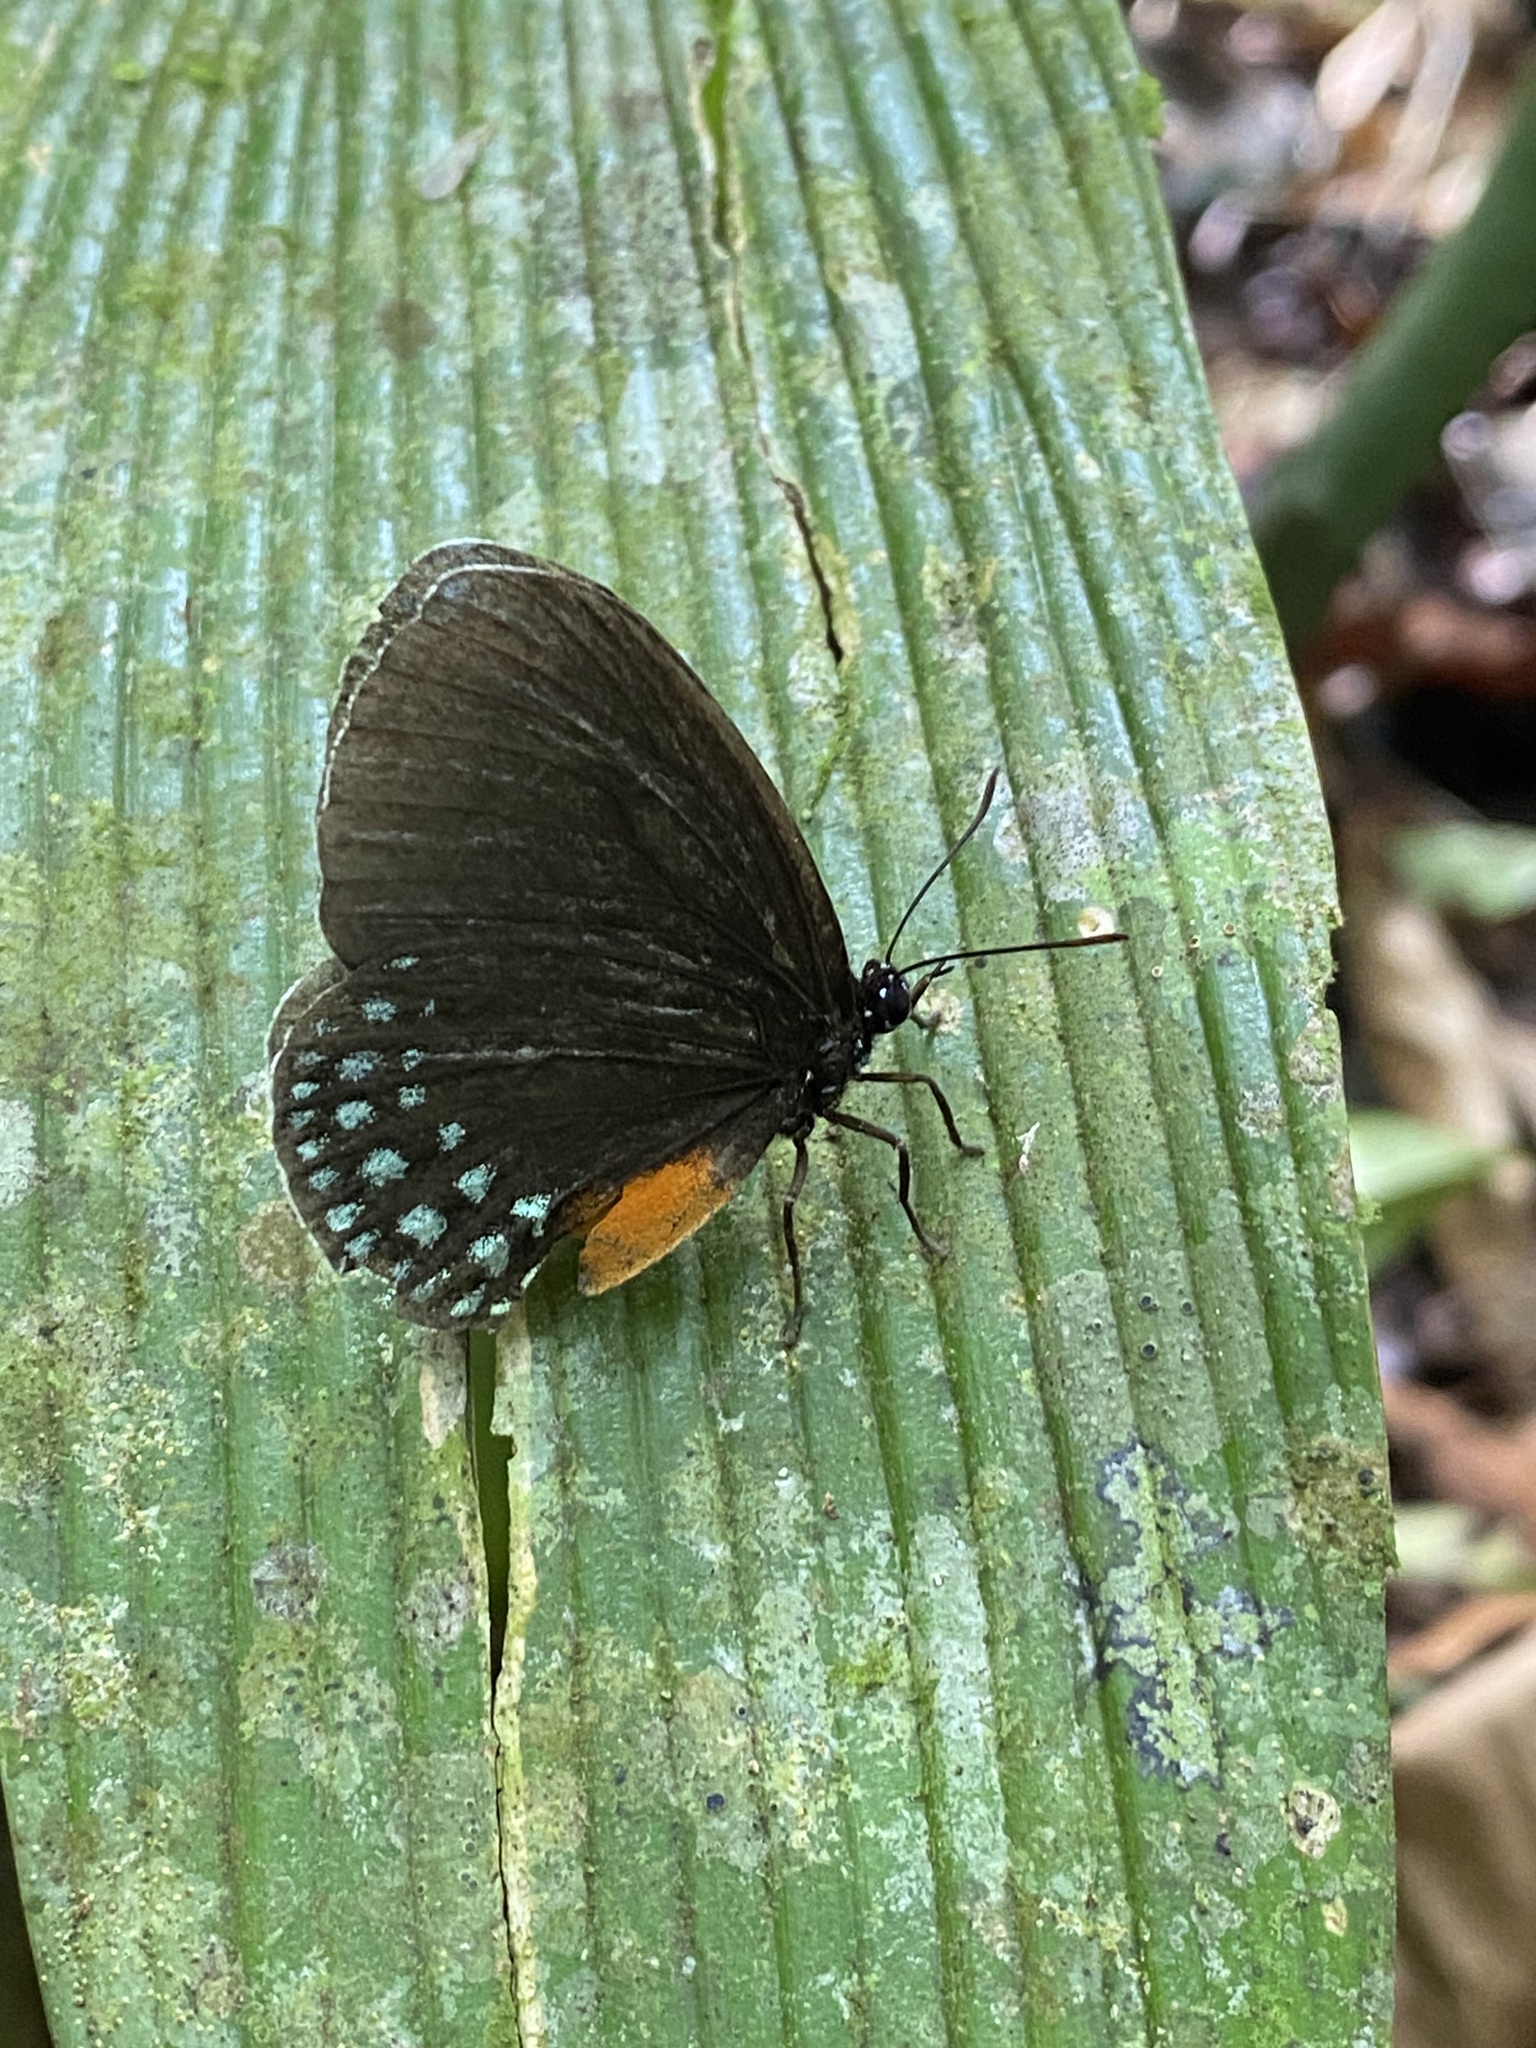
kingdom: Animalia
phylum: Arthropoda
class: Insecta
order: Lepidoptera
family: Lycaenidae
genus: Eumaeus
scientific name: Eumaeus godartii
